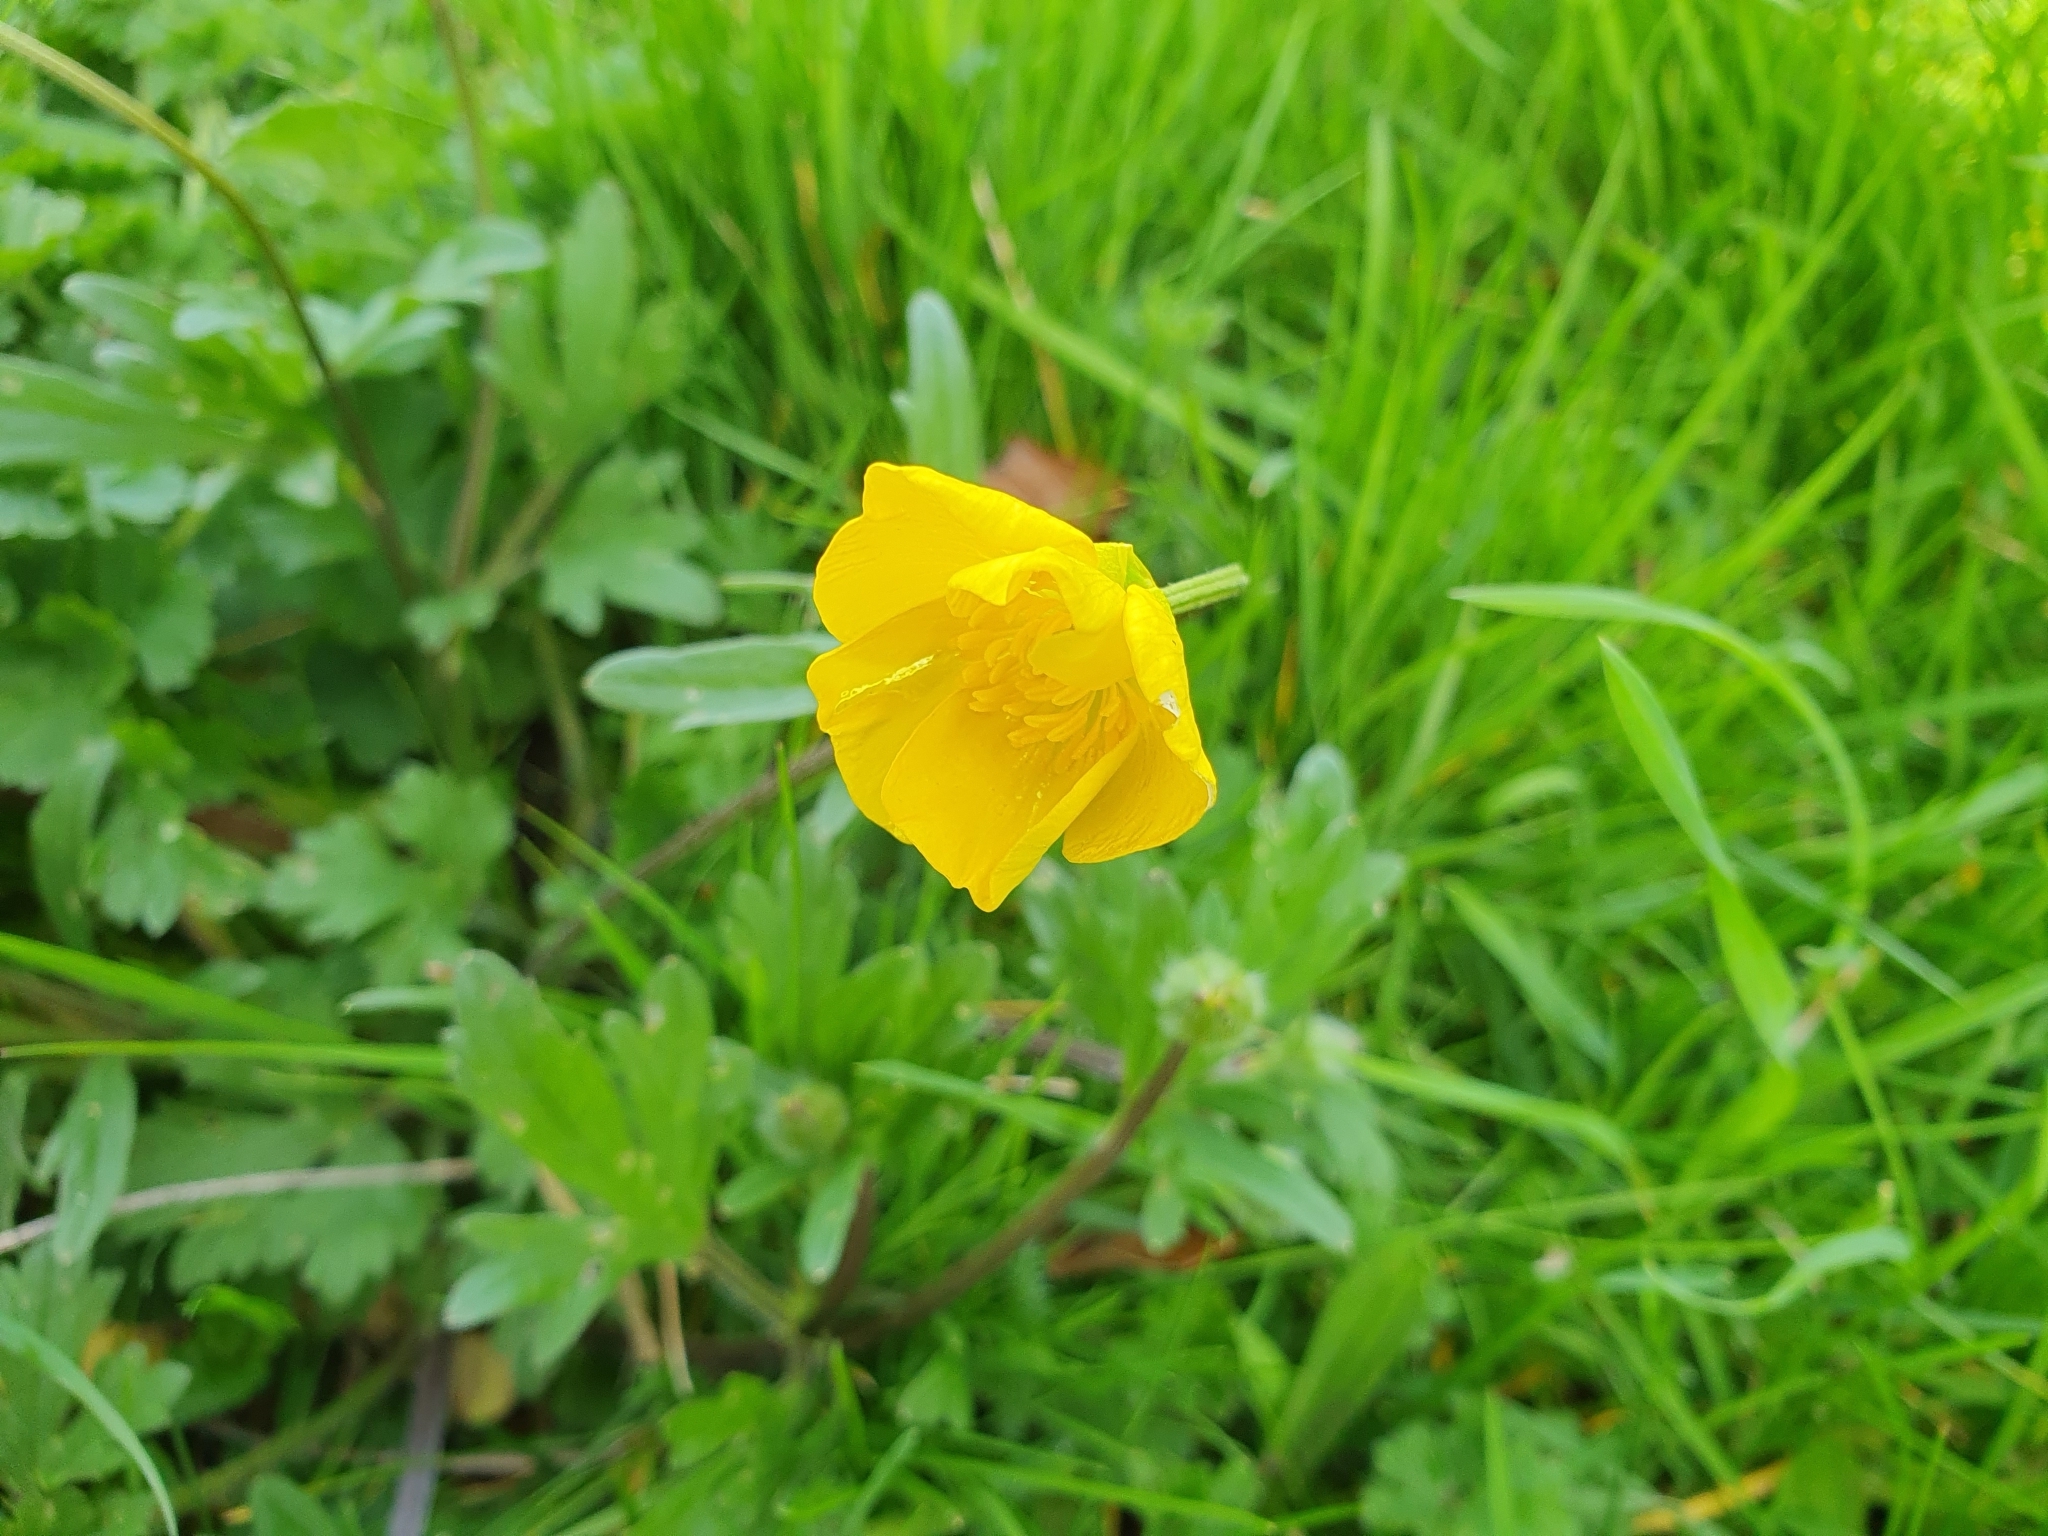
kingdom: Plantae
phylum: Tracheophyta
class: Magnoliopsida
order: Ranunculales
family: Ranunculaceae
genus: Ranunculus
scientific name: Ranunculus bulbosus
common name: Bulbous buttercup
